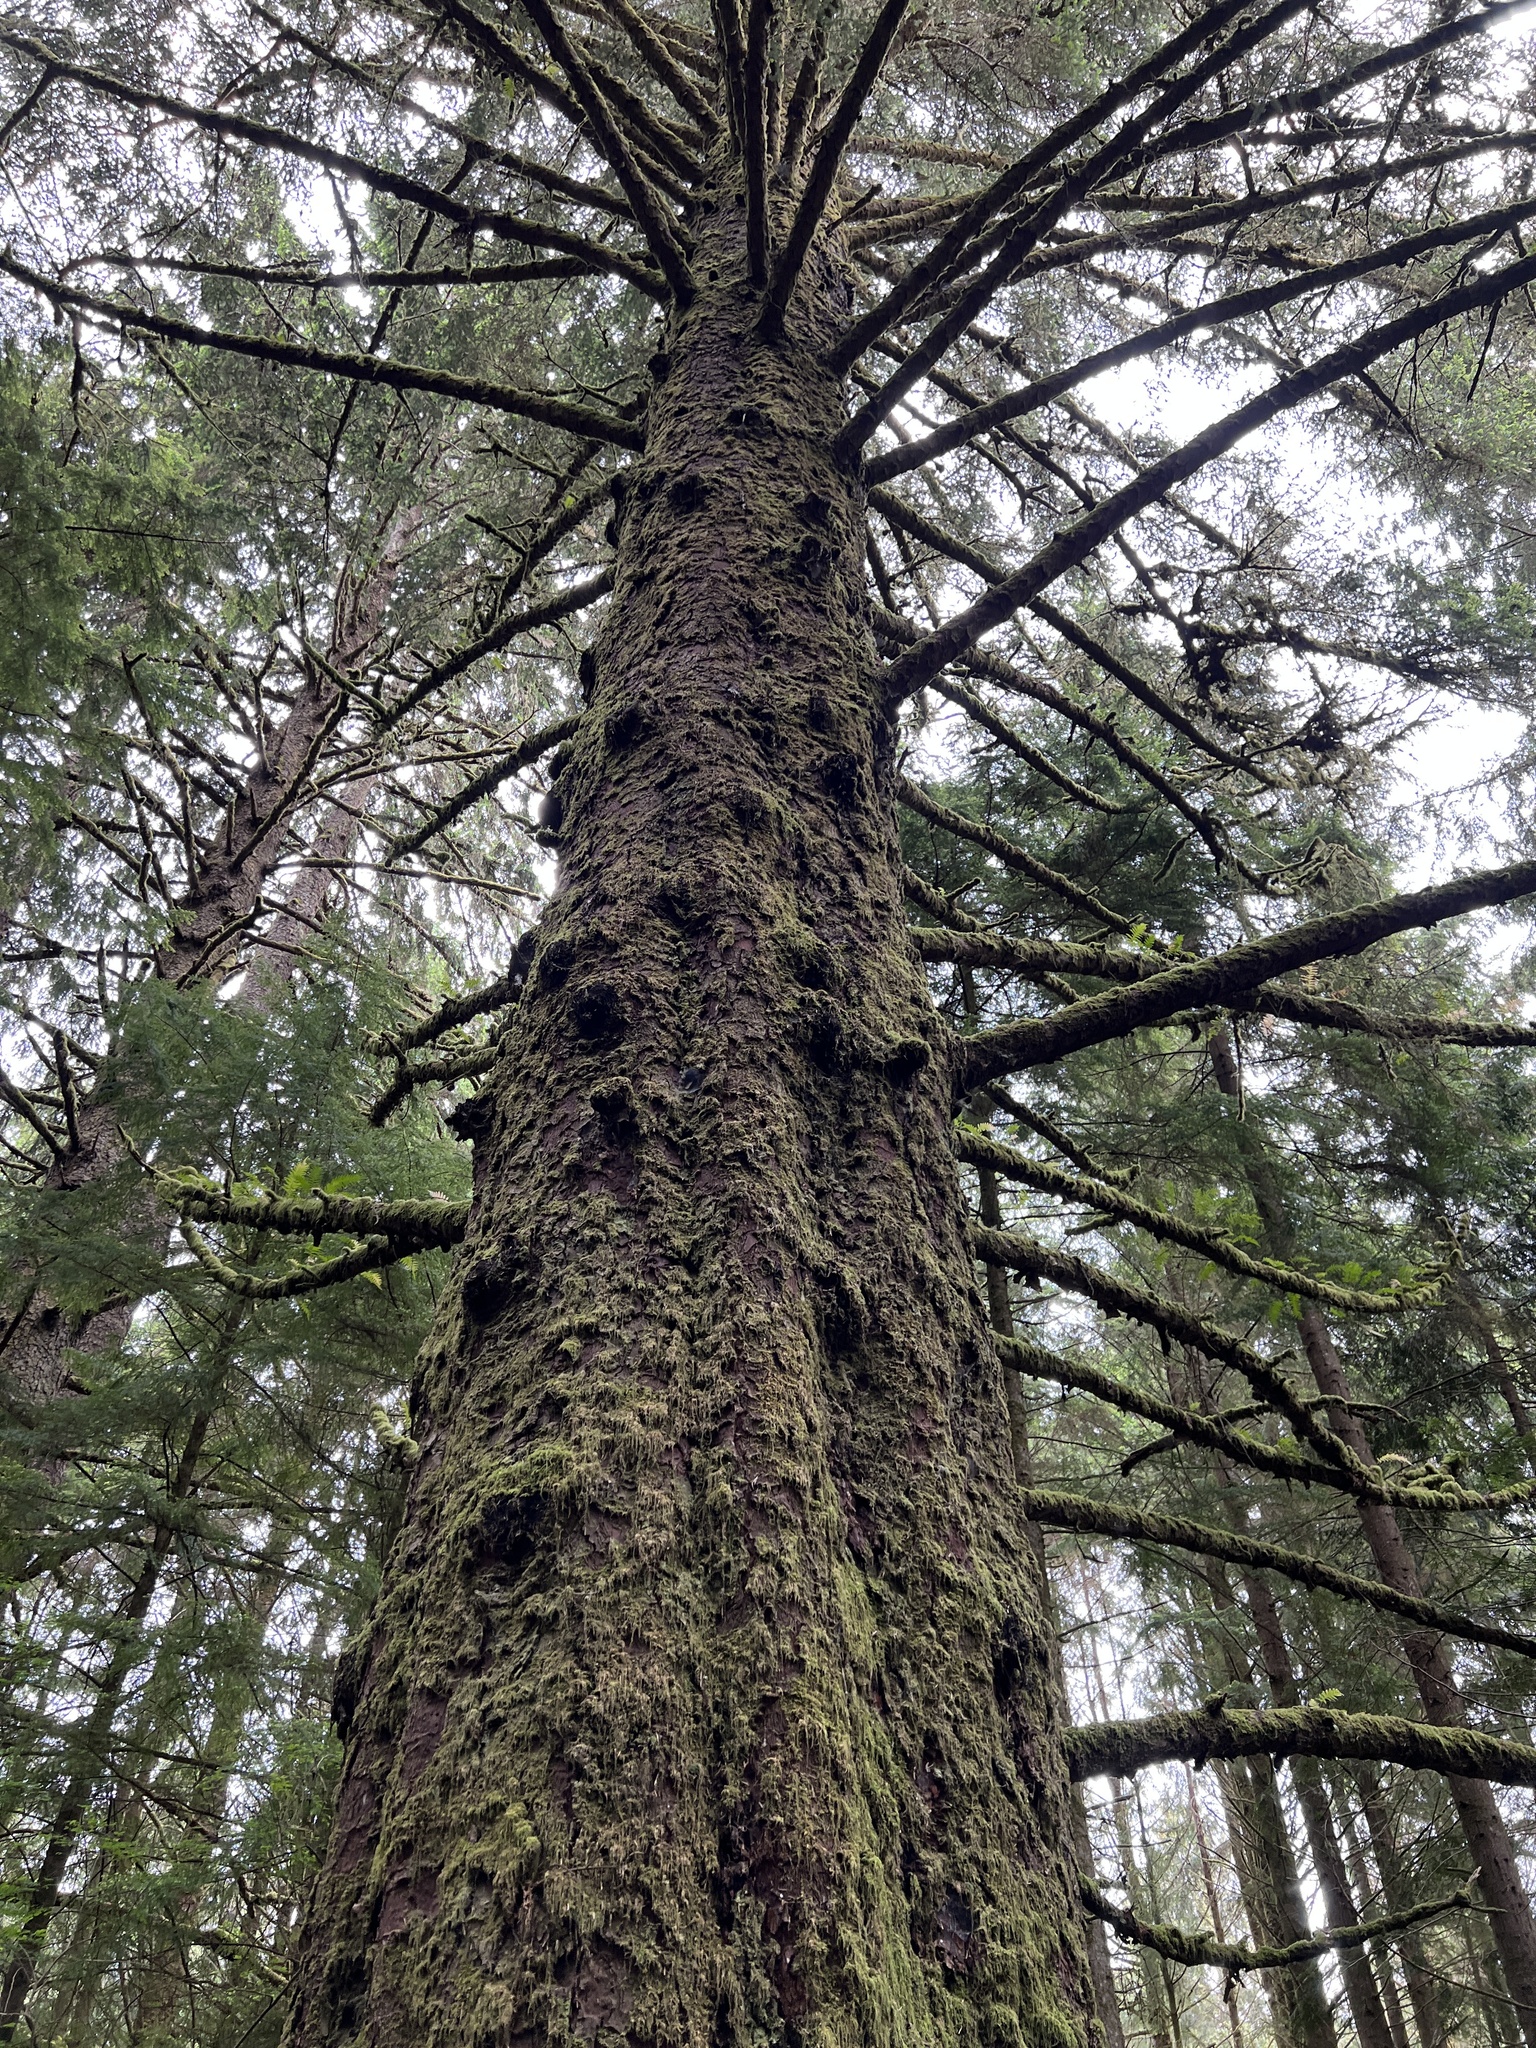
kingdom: Plantae
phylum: Tracheophyta
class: Pinopsida
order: Pinales
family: Pinaceae
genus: Picea
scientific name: Picea sitchensis
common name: Sitka spruce
